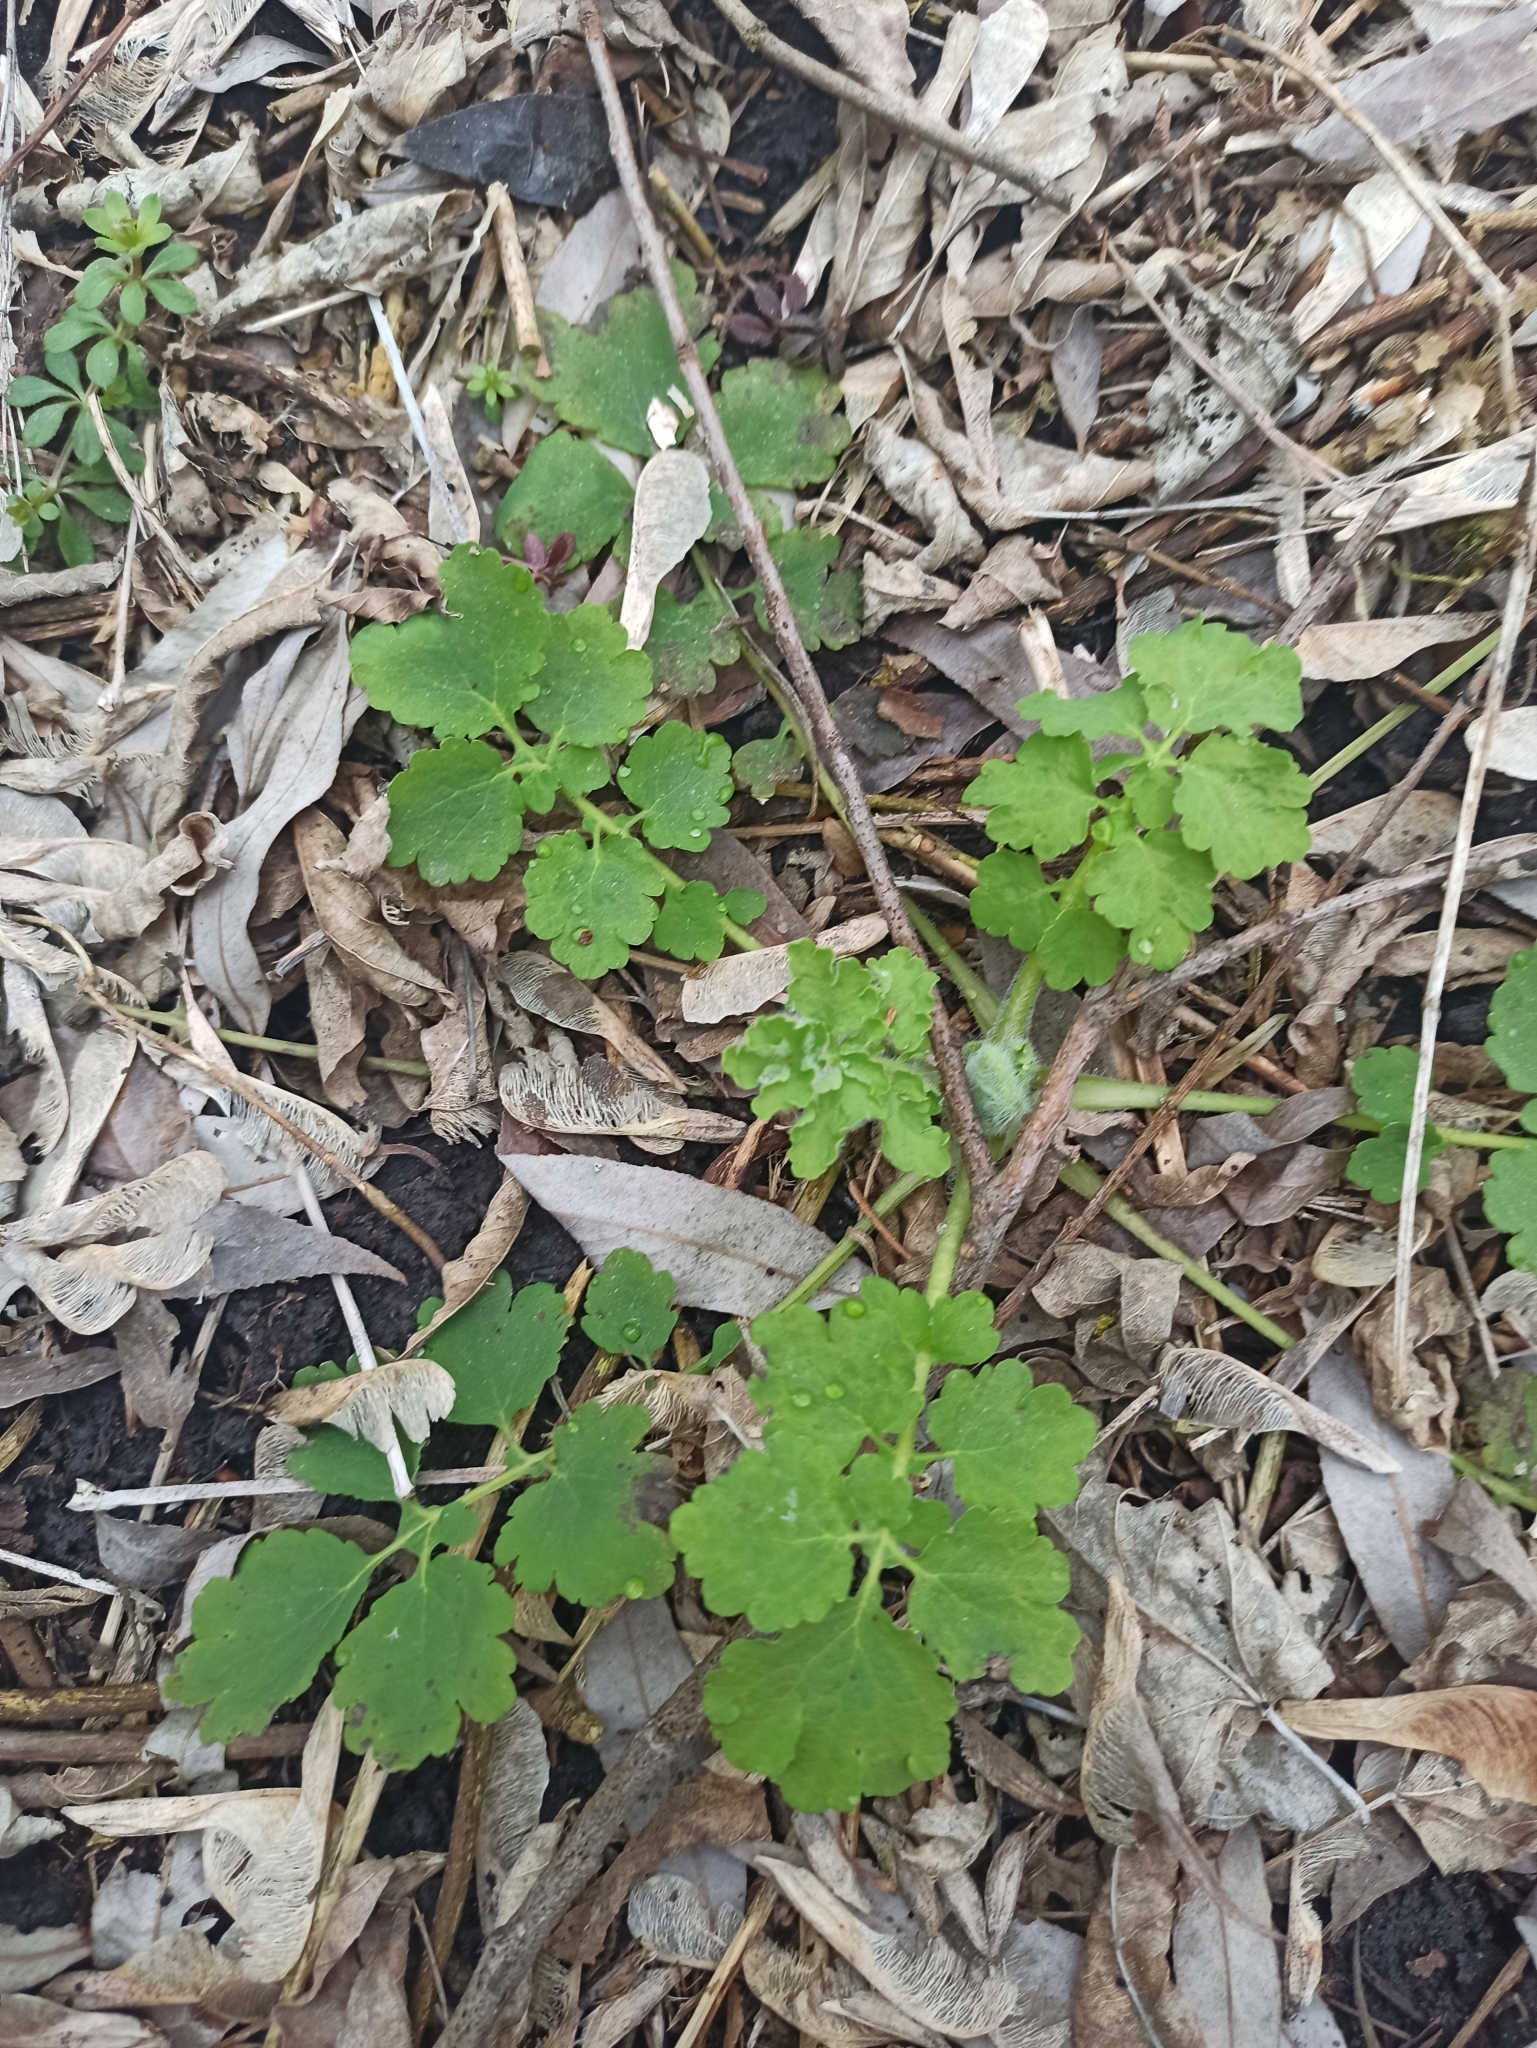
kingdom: Plantae
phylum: Tracheophyta
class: Magnoliopsida
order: Ranunculales
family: Papaveraceae
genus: Chelidonium
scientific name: Chelidonium majus
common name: Greater celandine
